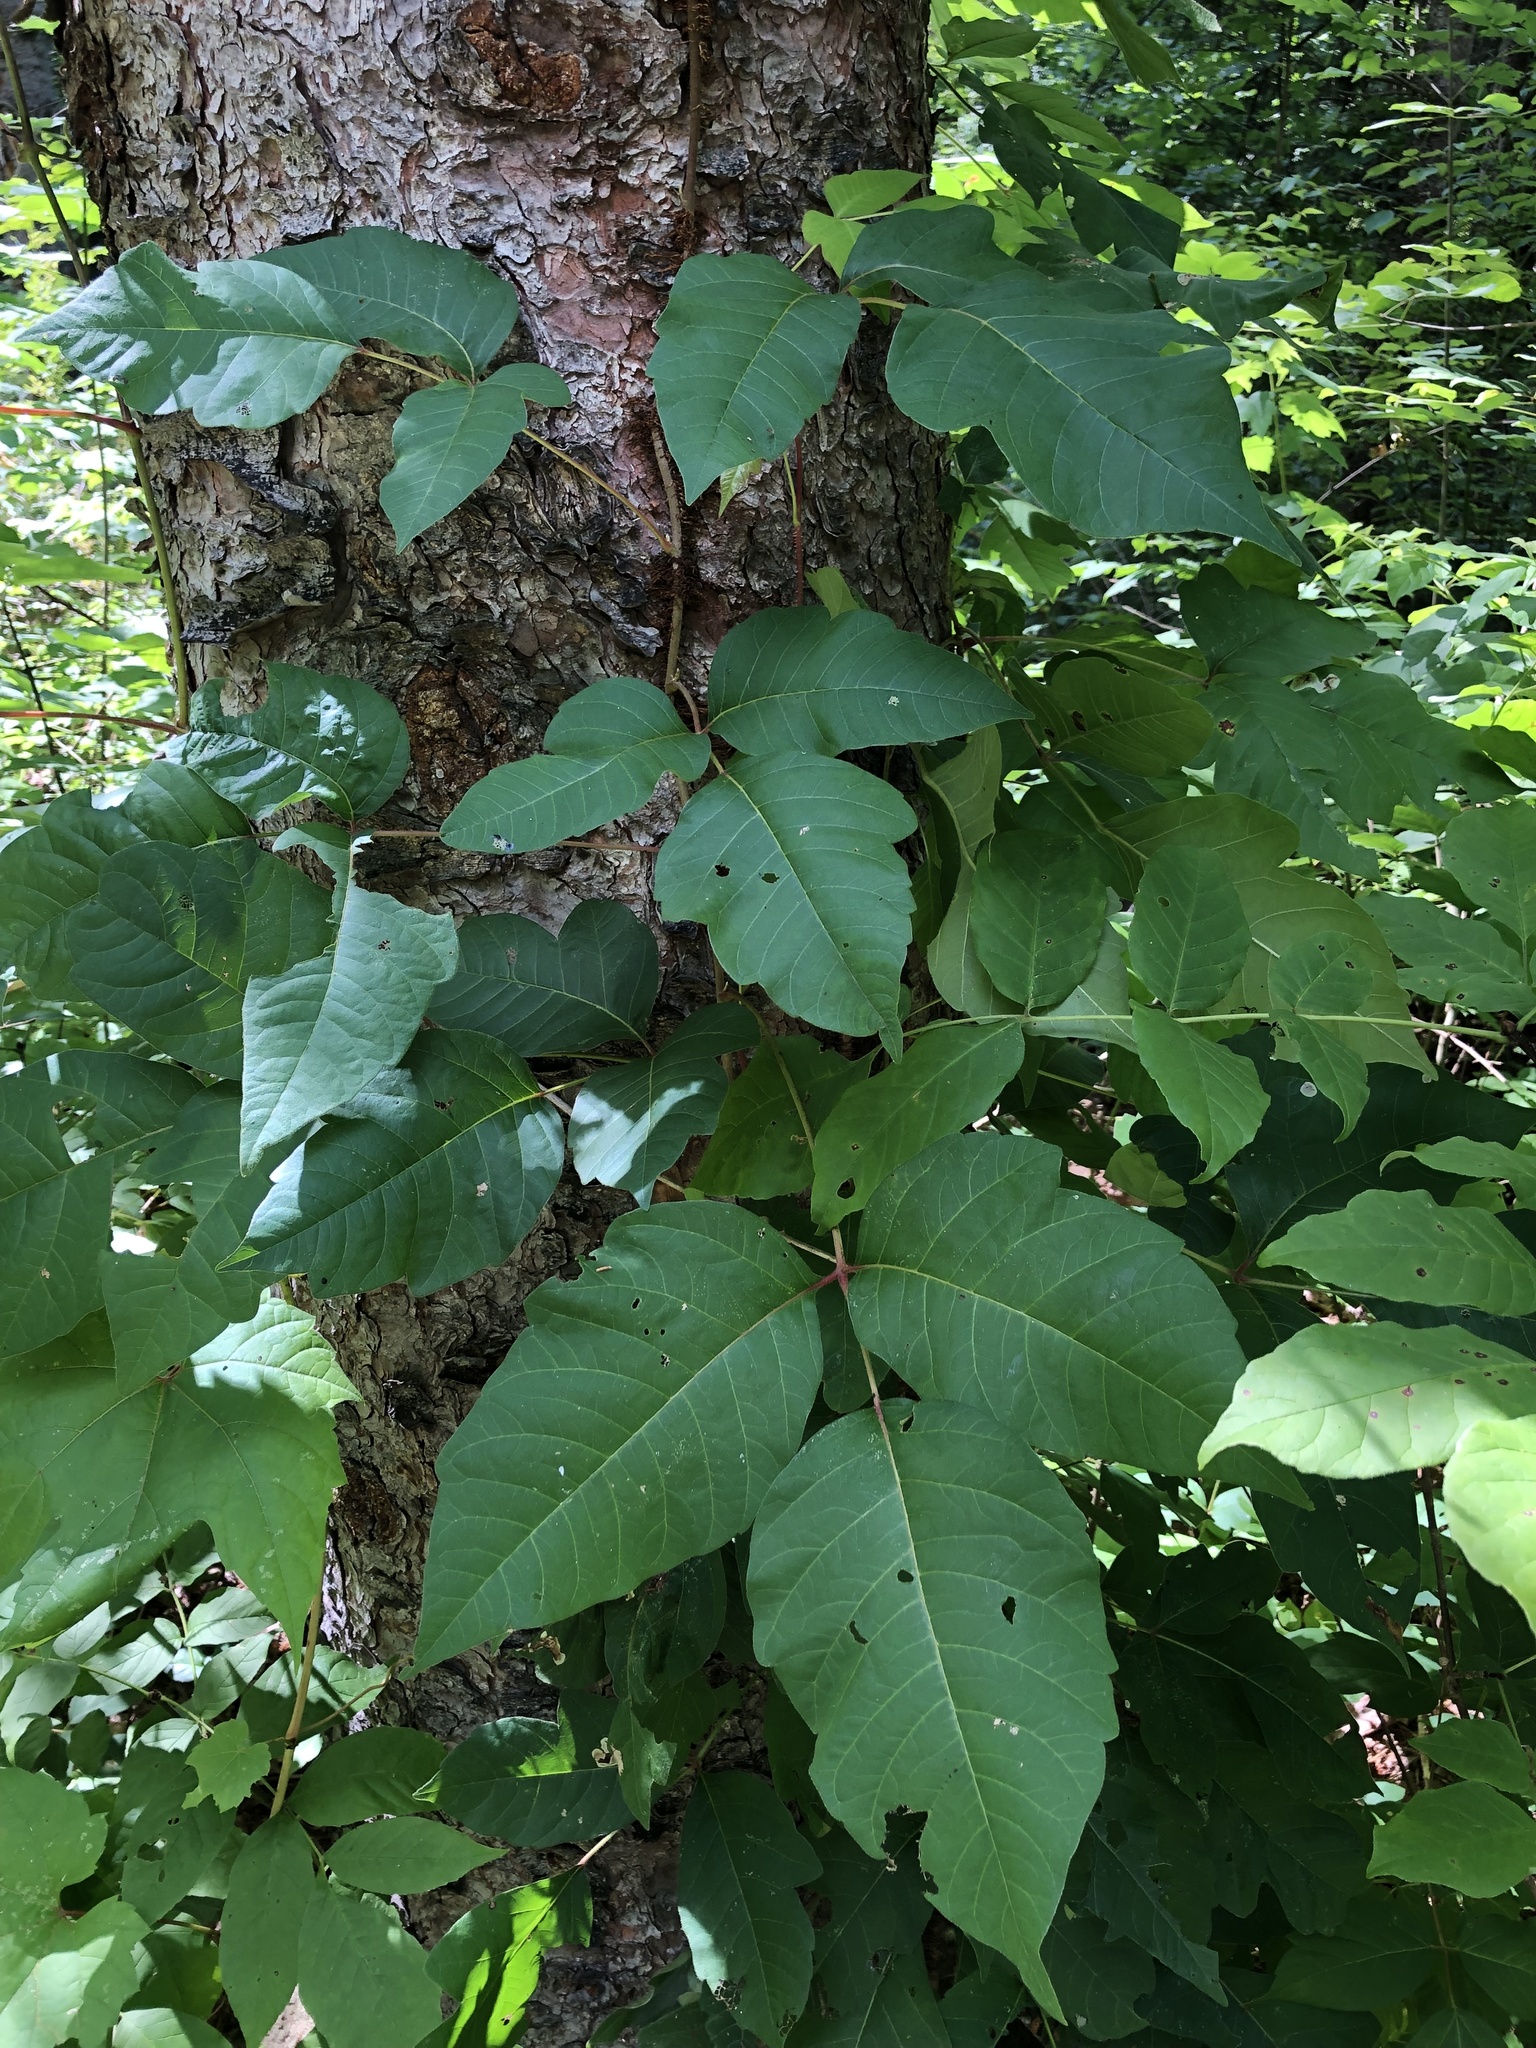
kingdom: Plantae
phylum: Tracheophyta
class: Magnoliopsida
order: Sapindales
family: Anacardiaceae
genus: Toxicodendron
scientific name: Toxicodendron radicans
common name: Poison ivy
